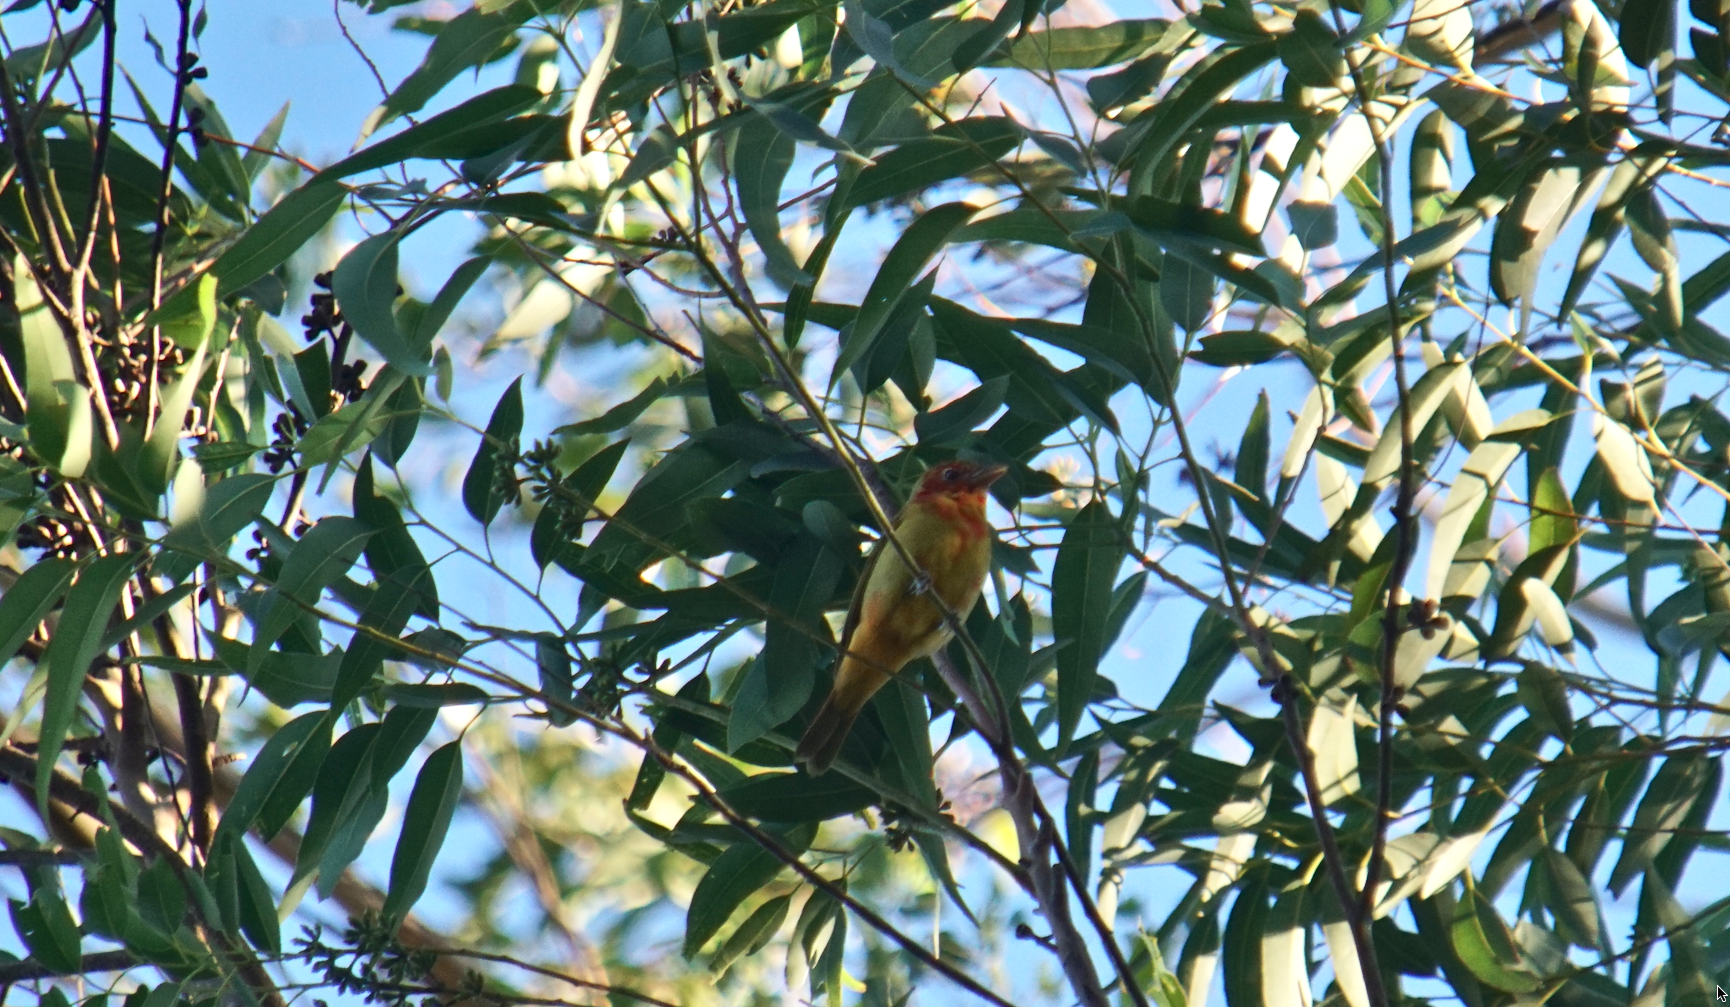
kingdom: Animalia
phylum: Chordata
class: Aves
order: Passeriformes
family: Cardinalidae
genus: Piranga
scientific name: Piranga rubra
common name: Summer tanager
